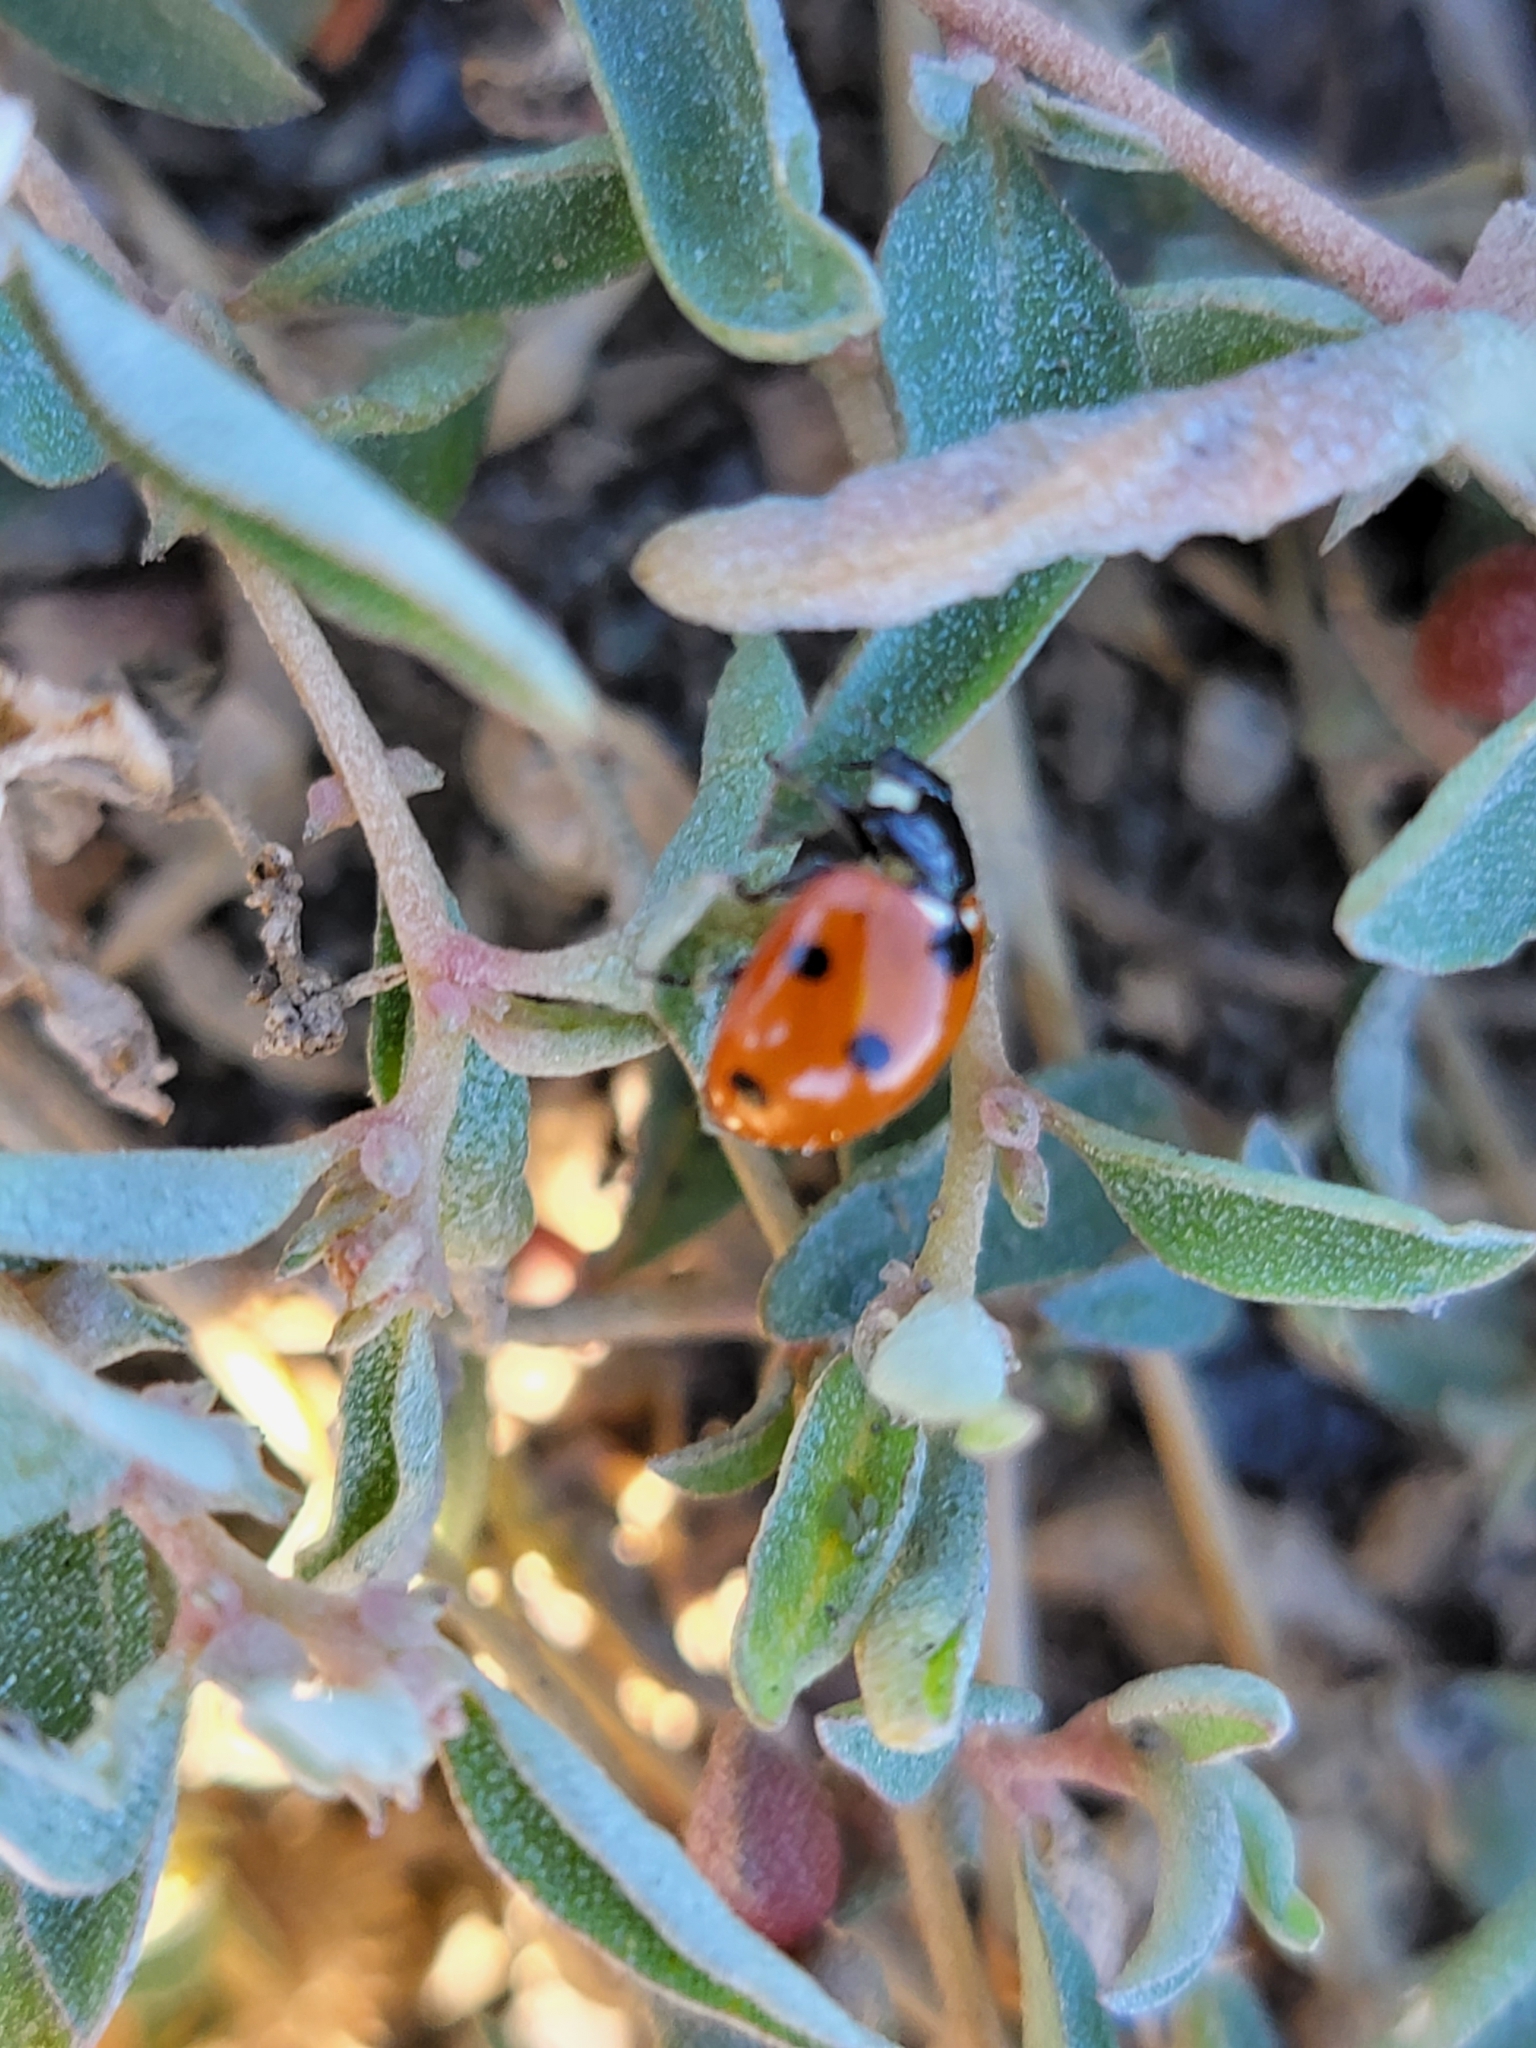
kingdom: Animalia
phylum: Arthropoda
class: Insecta
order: Coleoptera
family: Coccinellidae
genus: Coccinella
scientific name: Coccinella septempunctata
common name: Sevenspotted lady beetle
